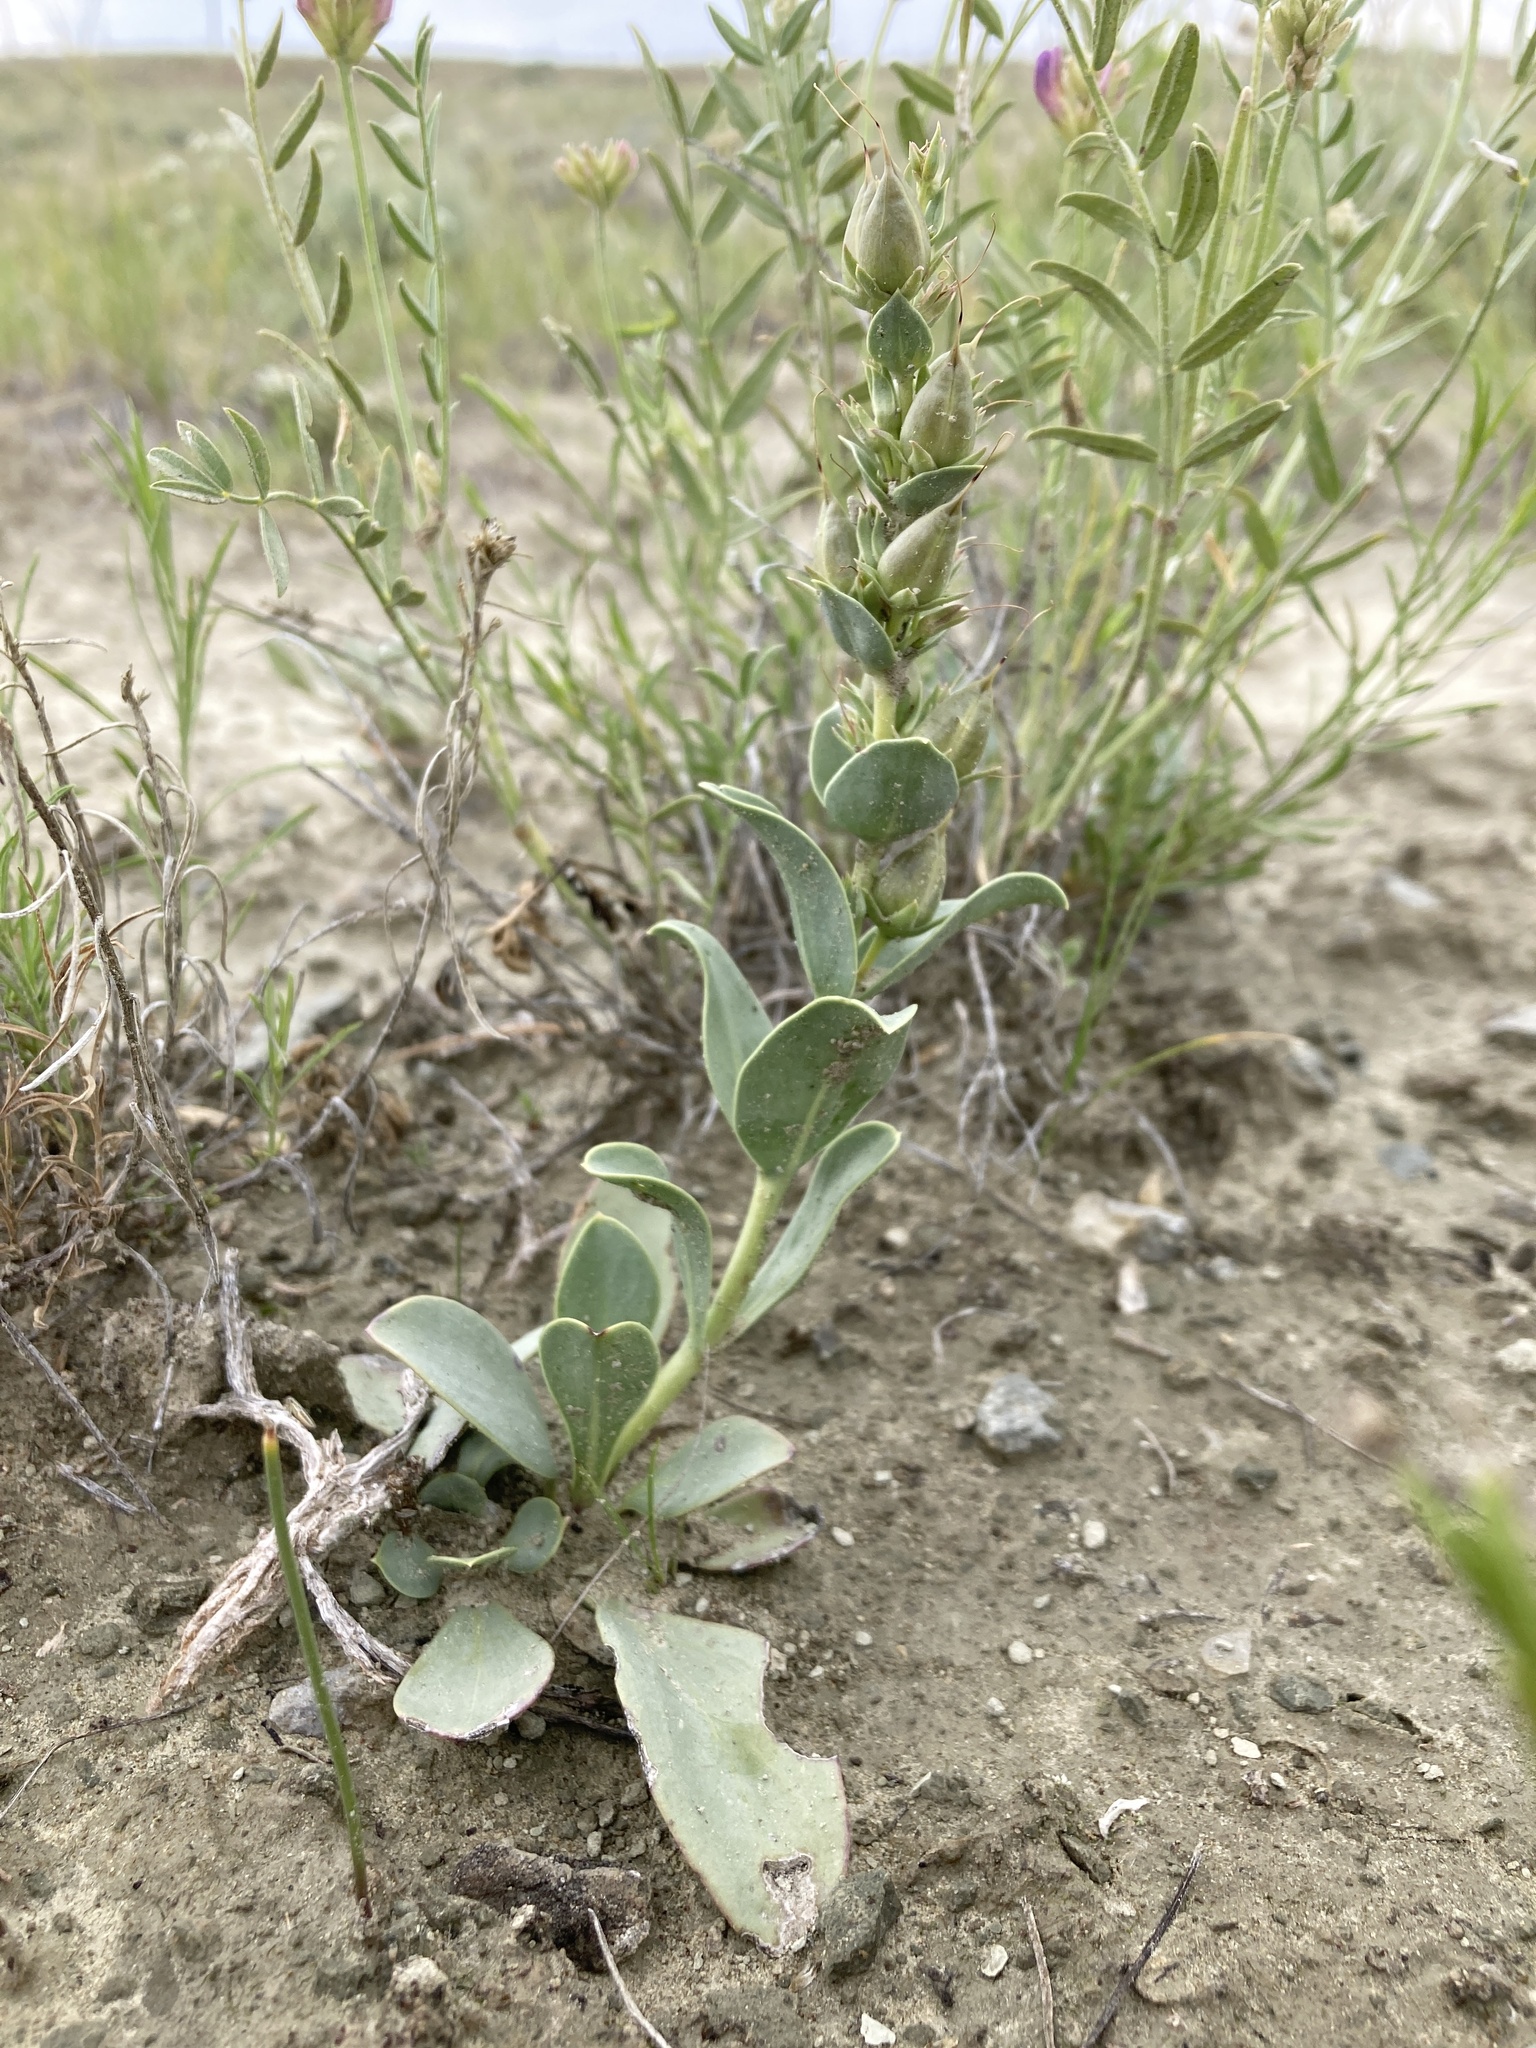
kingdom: Plantae
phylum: Tracheophyta
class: Magnoliopsida
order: Lamiales
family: Plantaginaceae
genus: Penstemon
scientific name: Penstemon nitidus
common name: Shining penstemon
